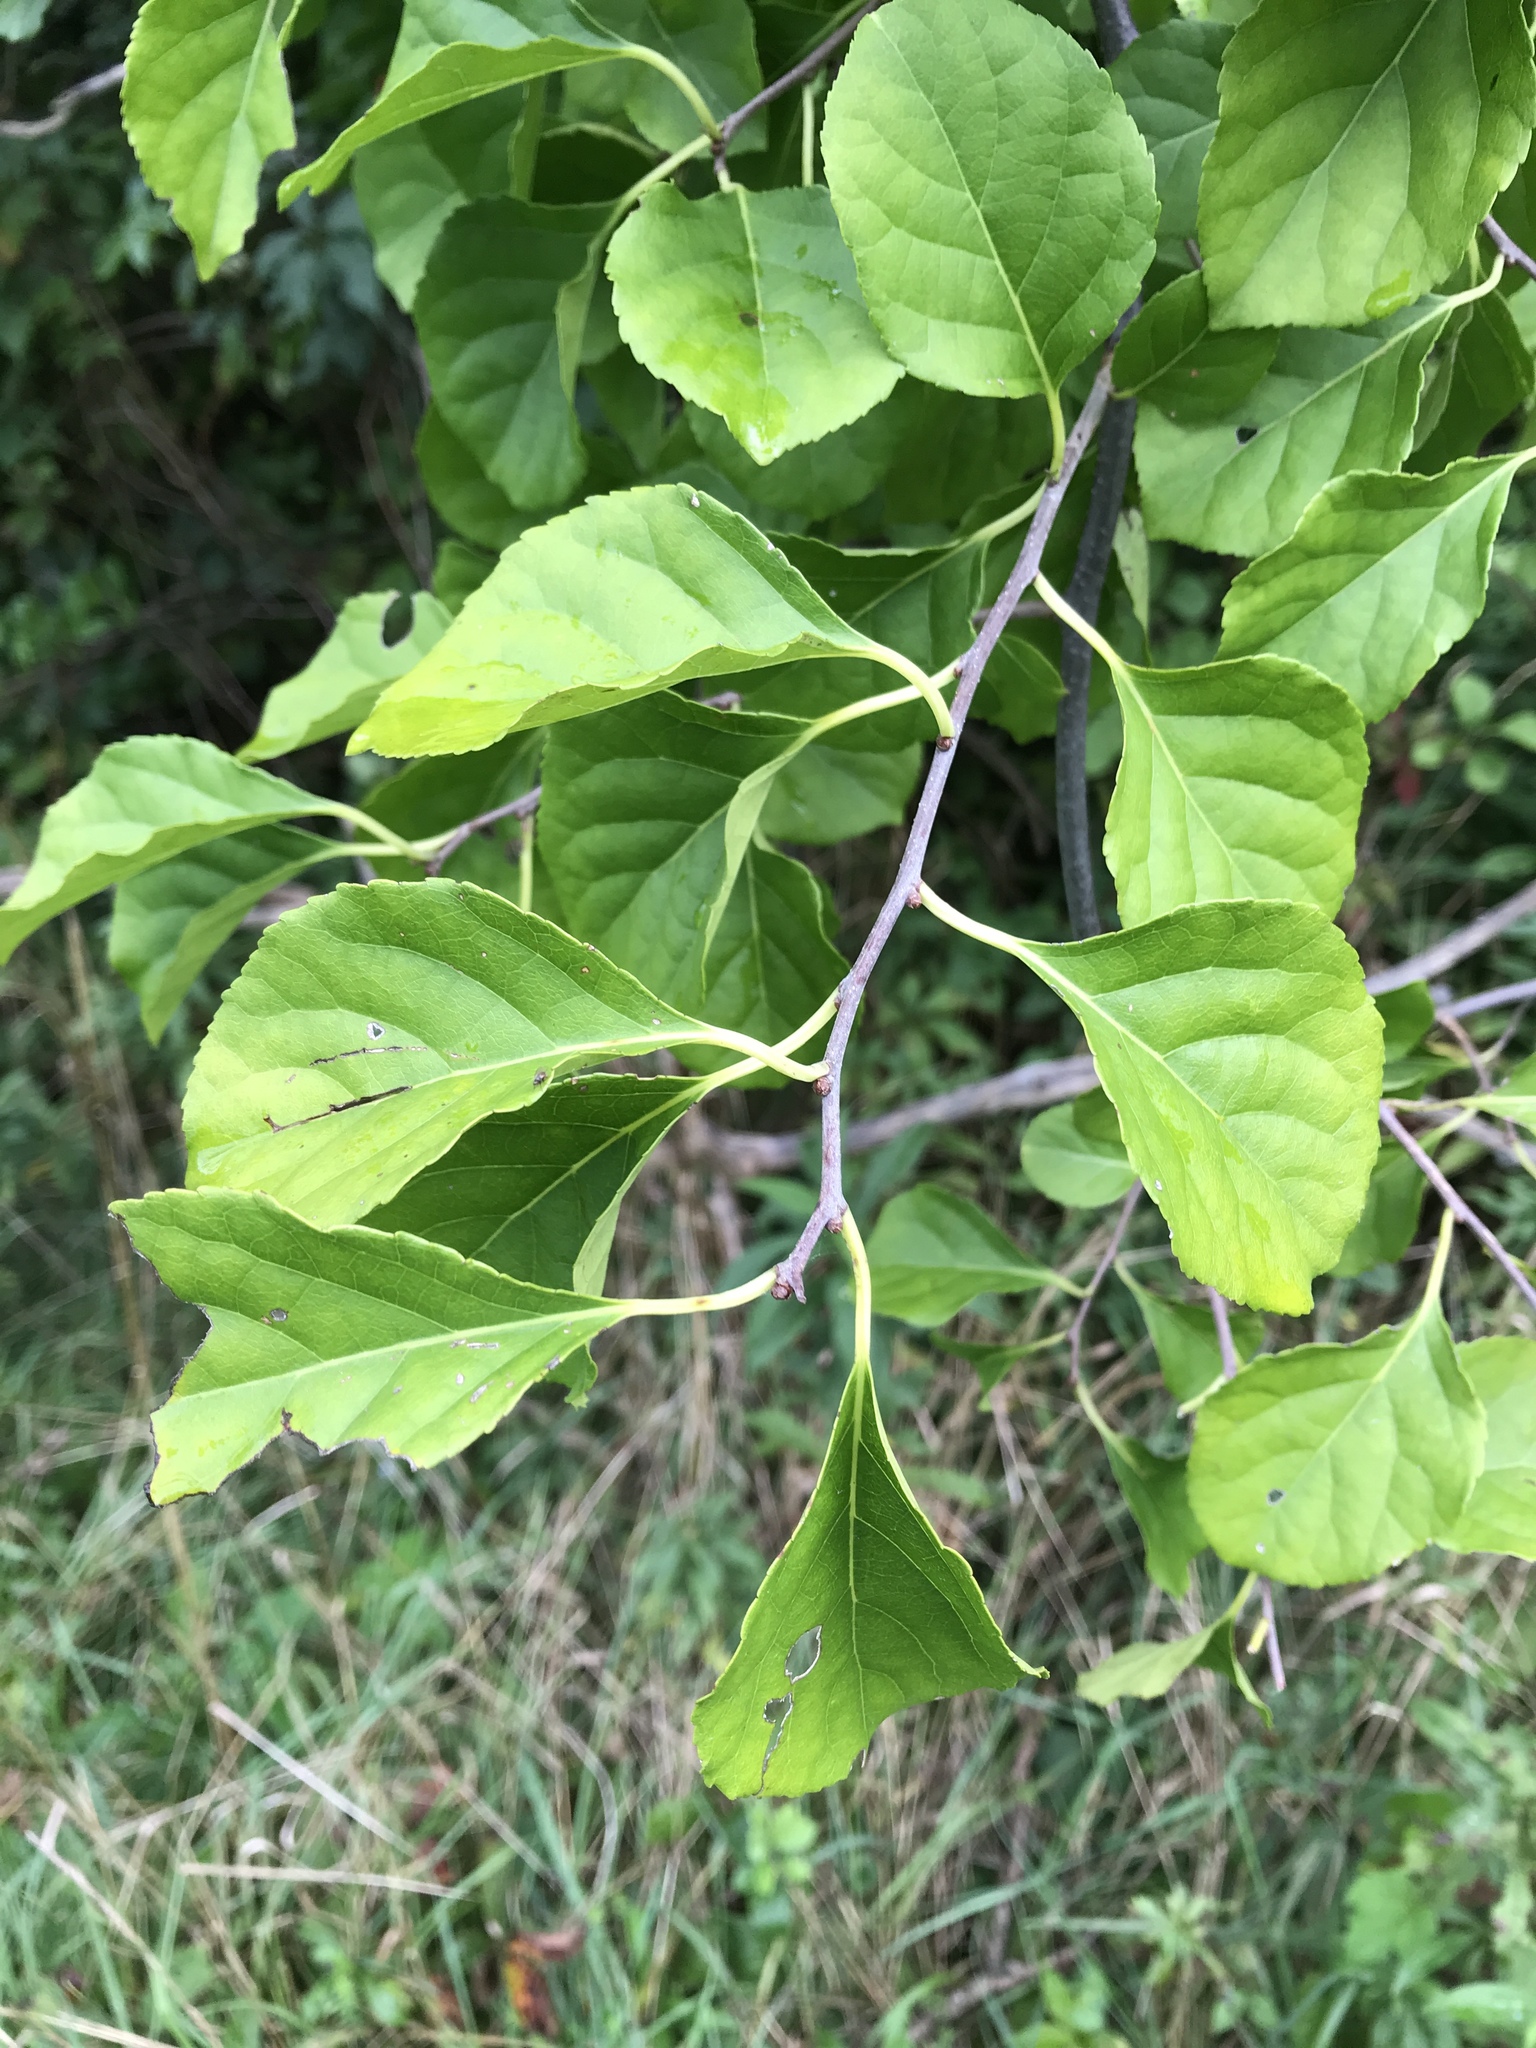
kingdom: Plantae
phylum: Tracheophyta
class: Magnoliopsida
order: Celastrales
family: Celastraceae
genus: Celastrus
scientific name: Celastrus orbiculatus
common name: Oriental bittersweet
